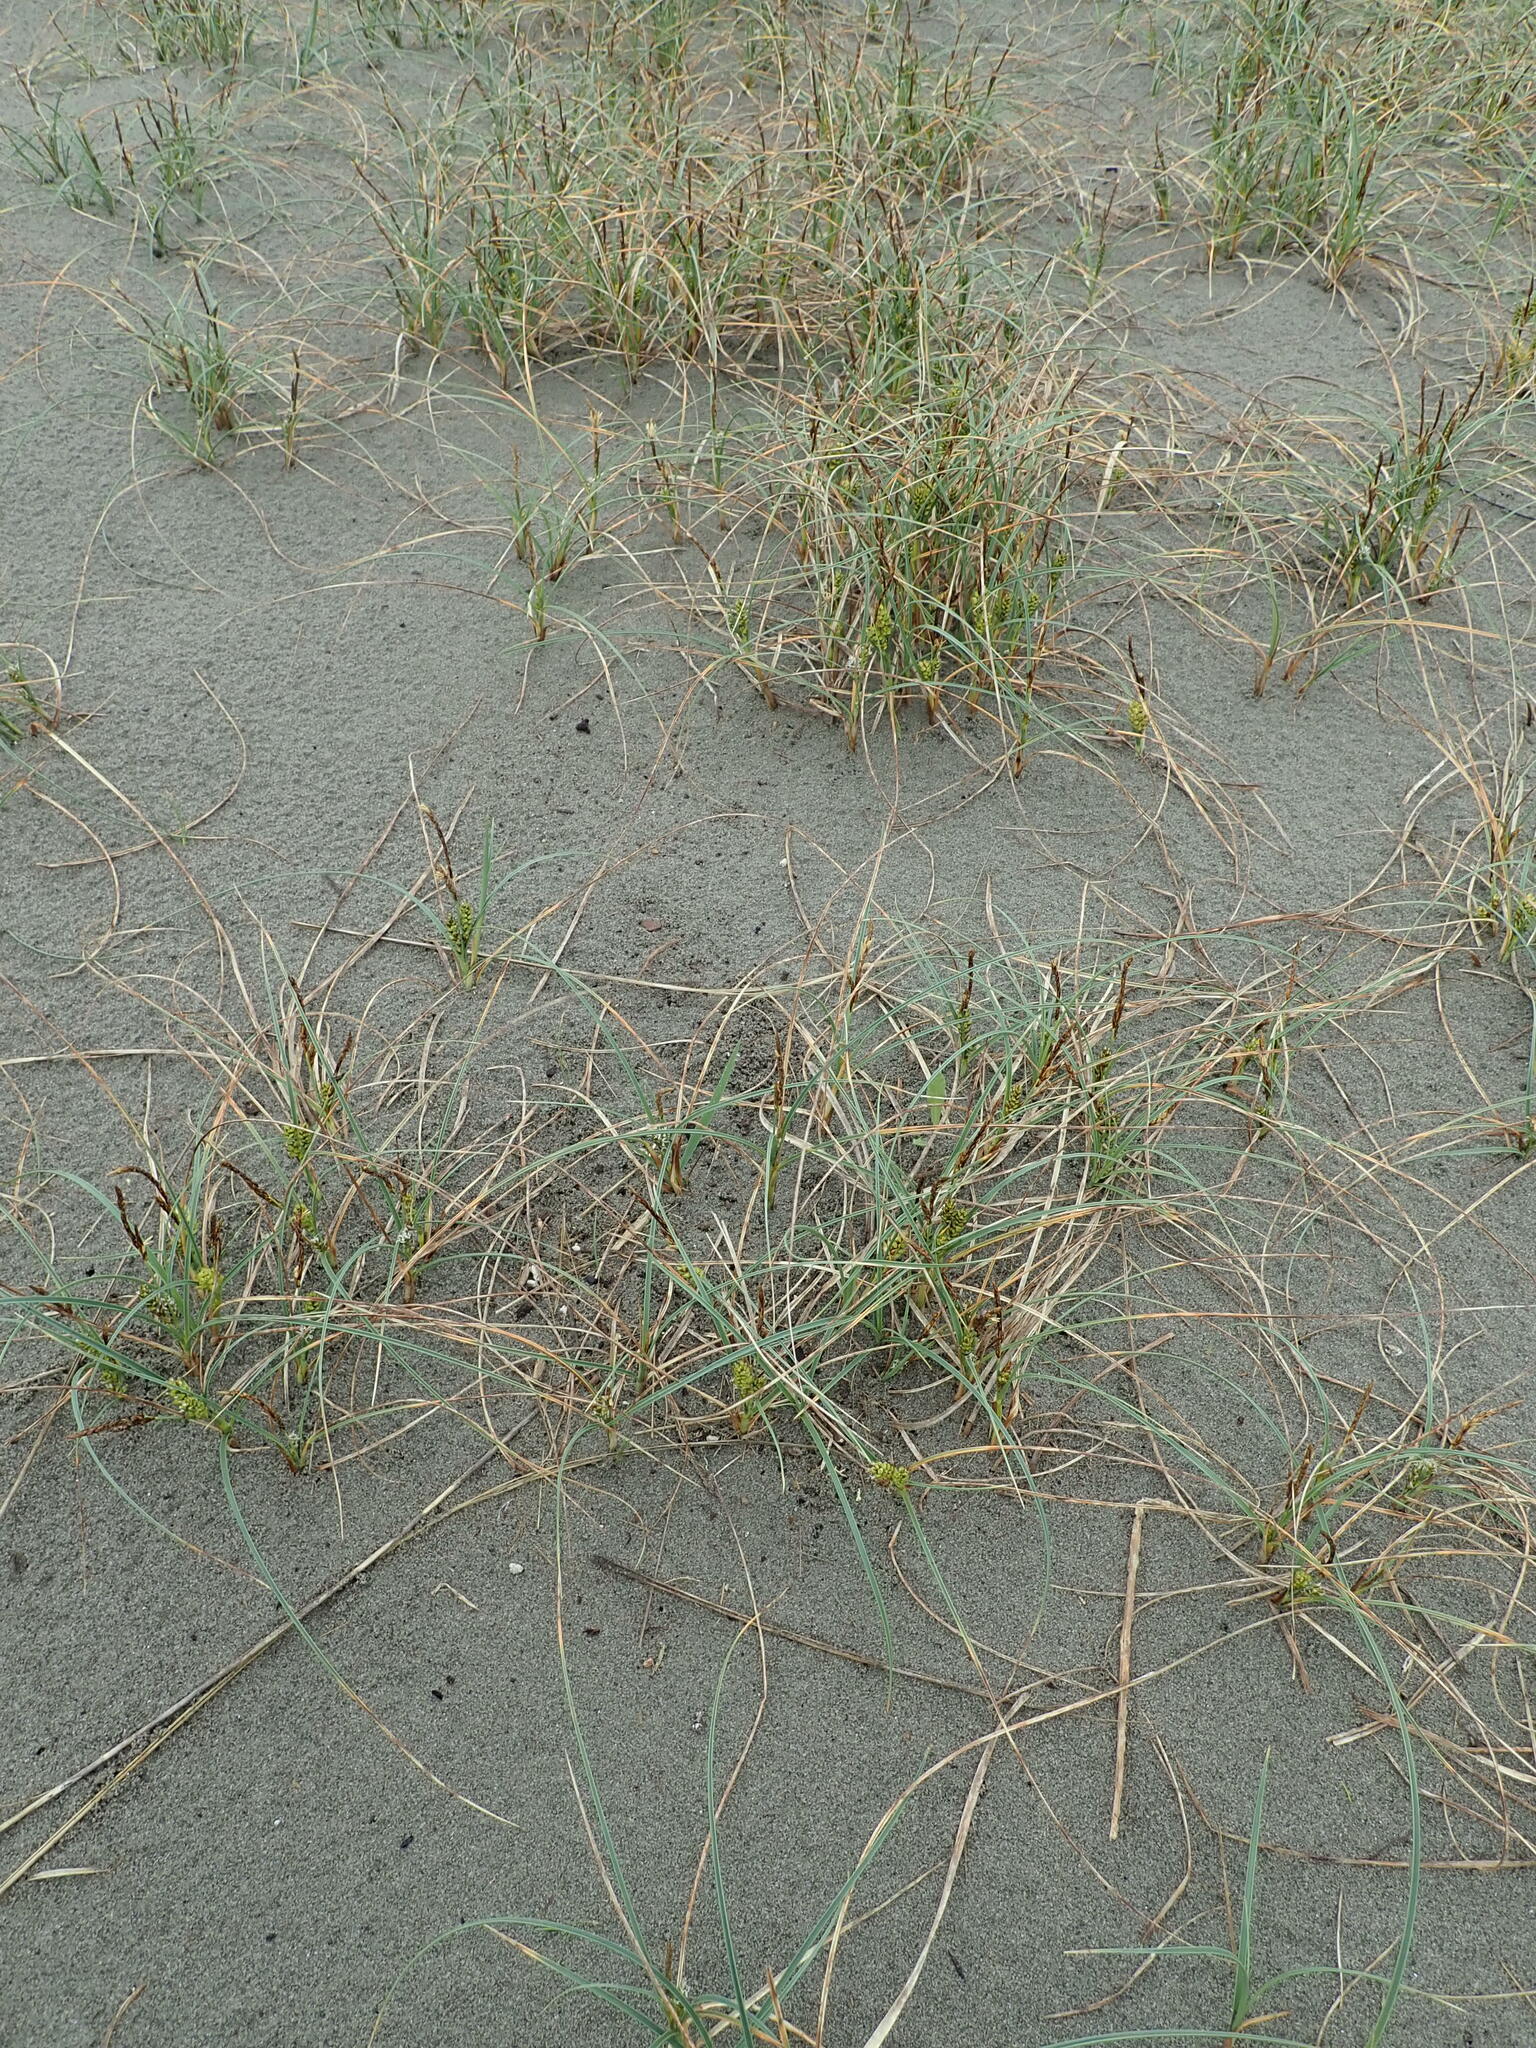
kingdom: Plantae
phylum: Tracheophyta
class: Liliopsida
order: Poales
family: Cyperaceae
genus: Carex
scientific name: Carex pumila
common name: Dwarf sedge
